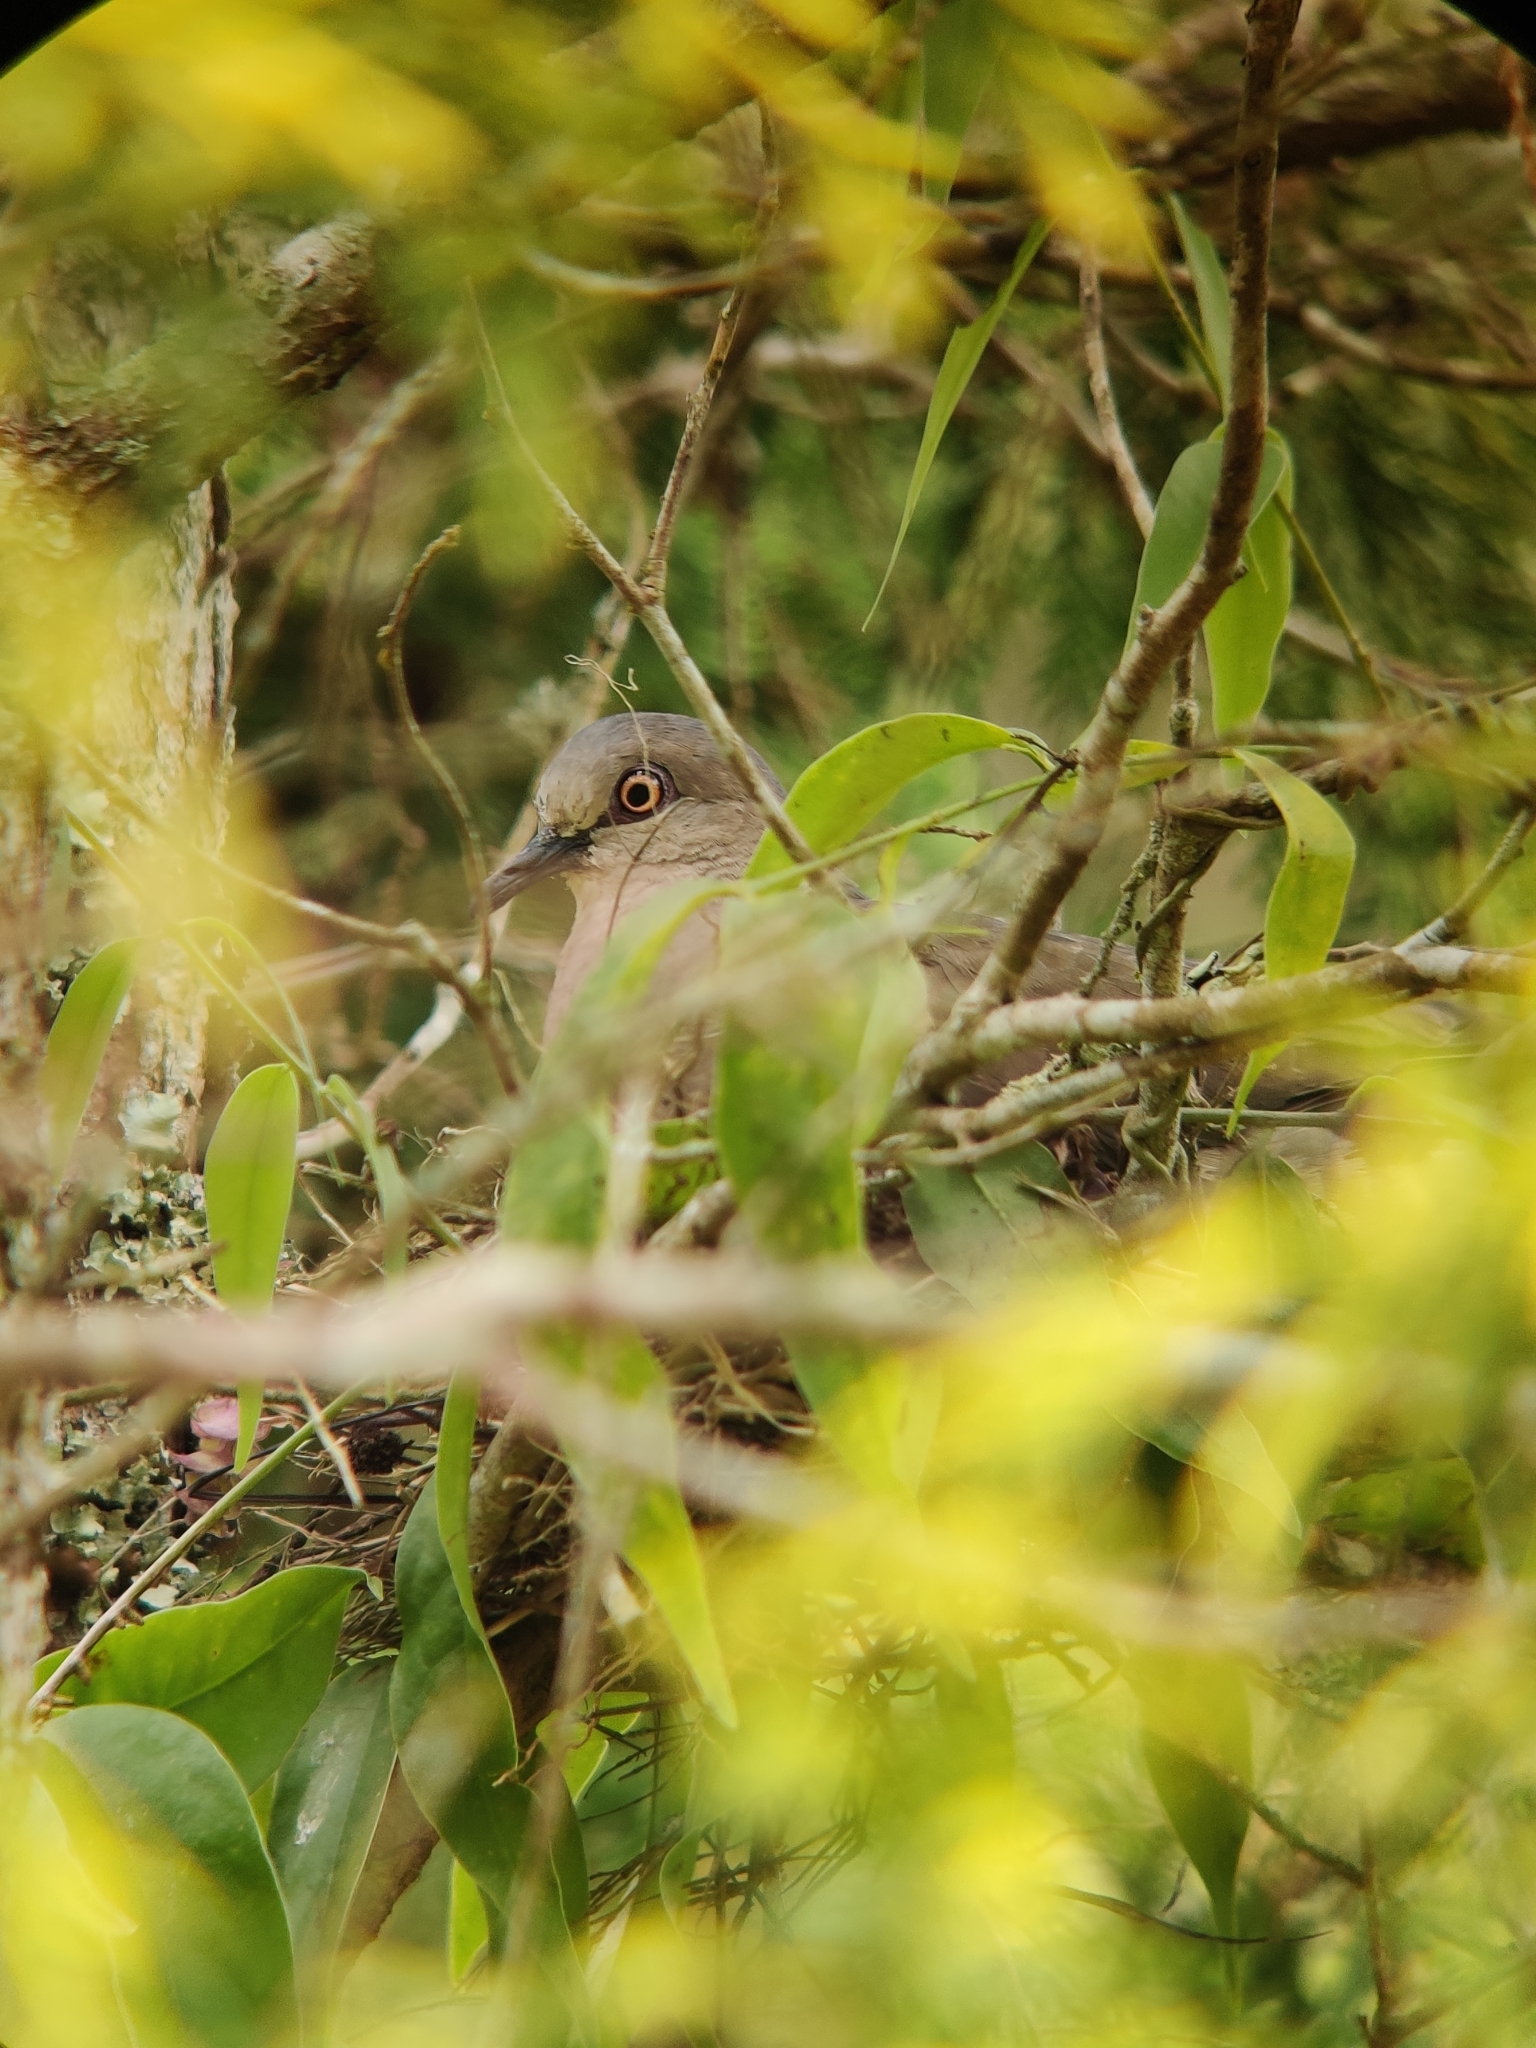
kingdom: Animalia
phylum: Chordata
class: Aves
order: Columbiformes
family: Columbidae
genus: Leptotila
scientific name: Leptotila verreauxi
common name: White-tipped dove
